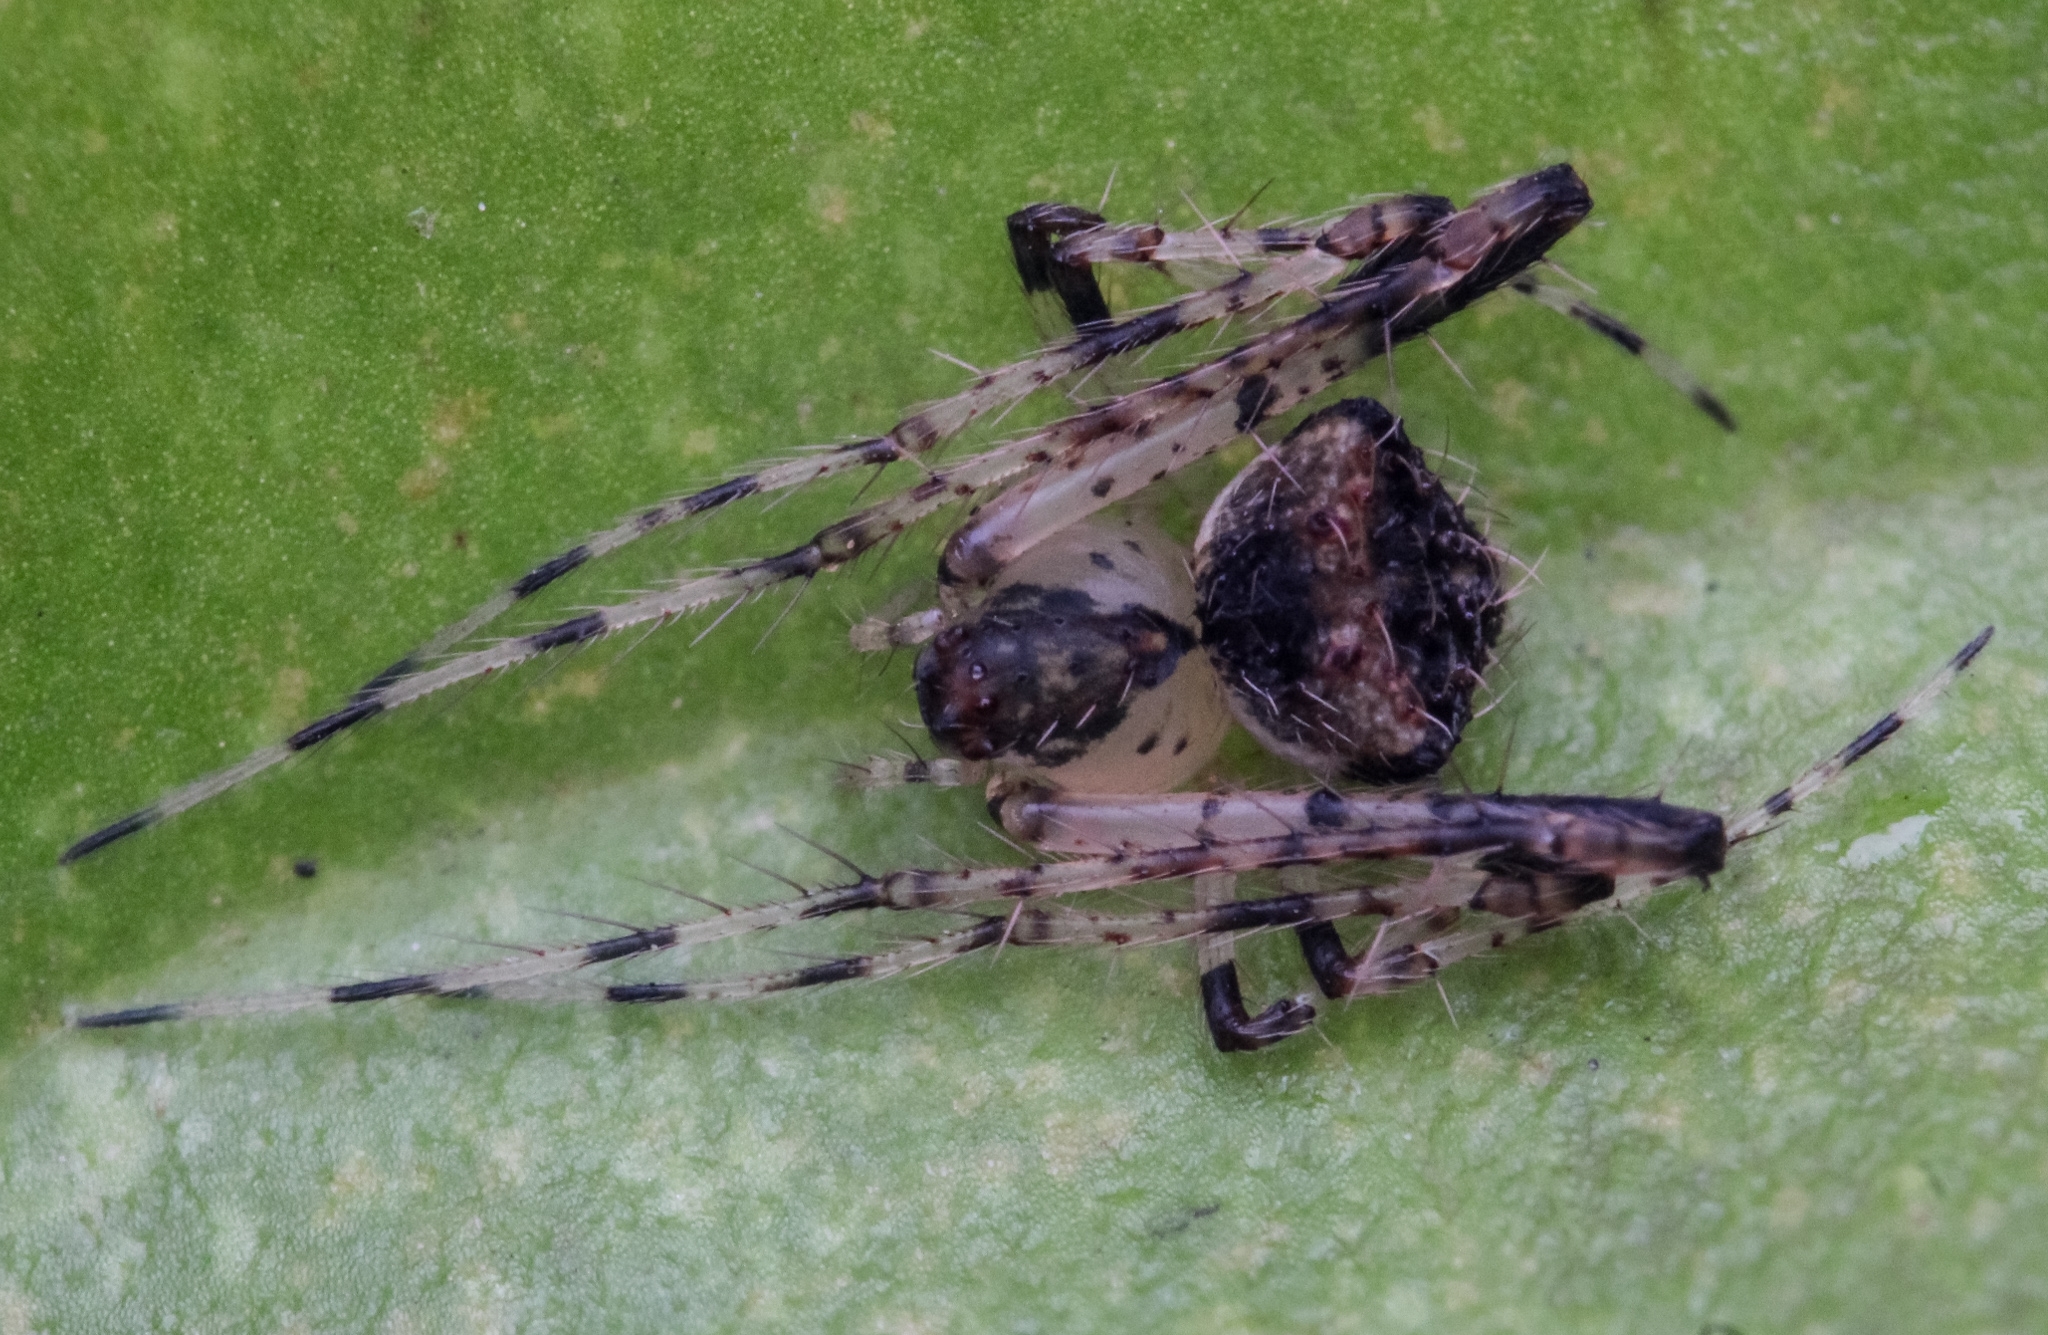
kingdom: Animalia
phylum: Arthropoda
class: Arachnida
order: Araneae
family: Mimetidae
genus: Mimetus
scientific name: Mimetus cornutus
